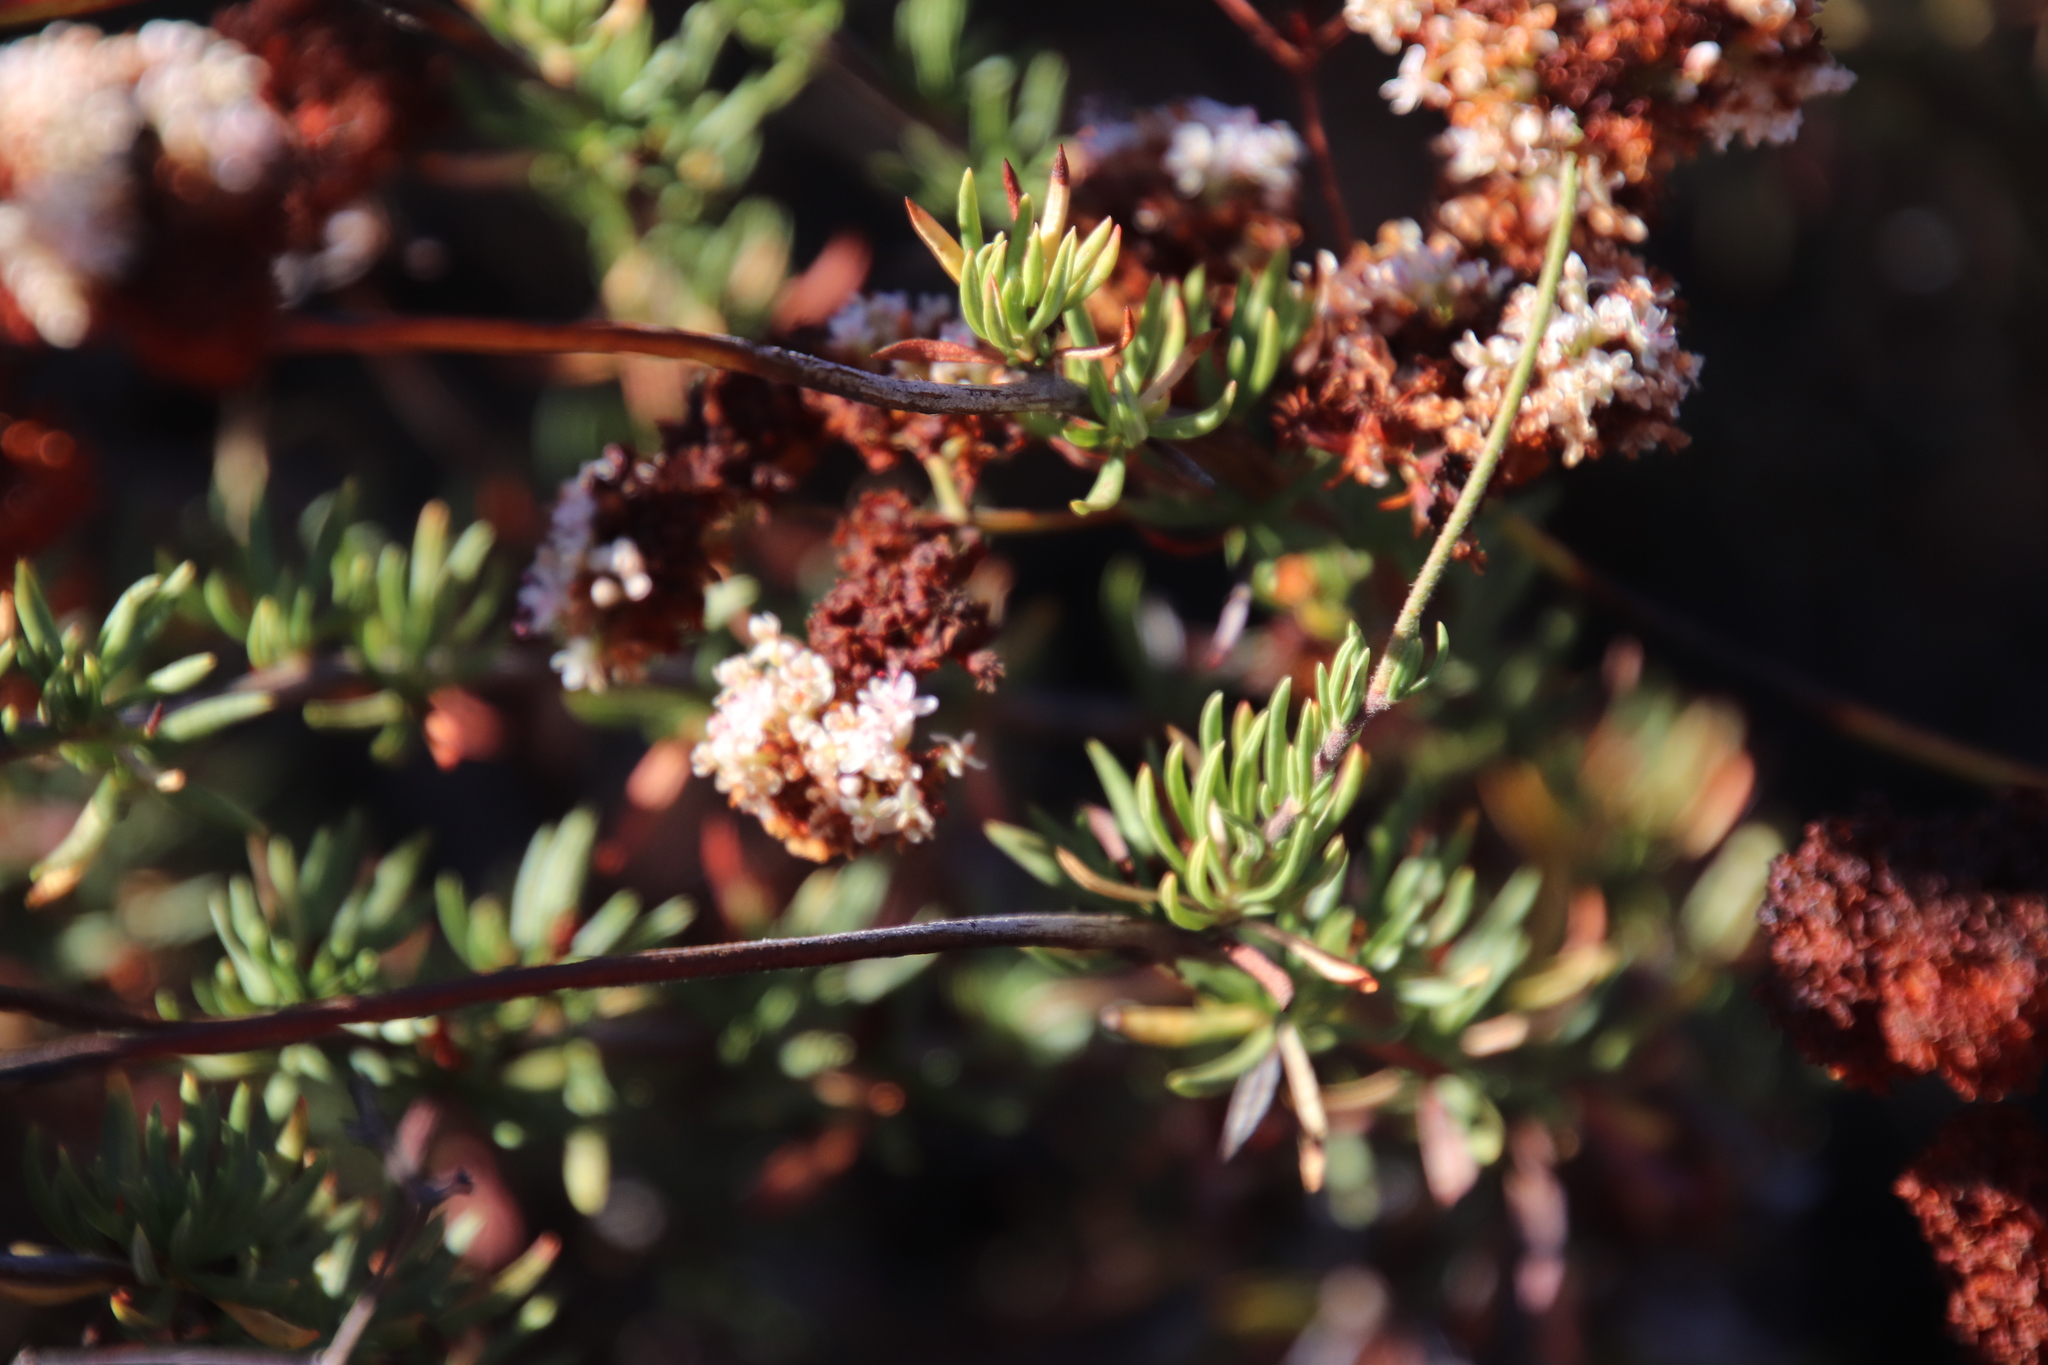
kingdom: Plantae
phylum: Tracheophyta
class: Magnoliopsida
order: Caryophyllales
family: Polygonaceae
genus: Eriogonum
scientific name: Eriogonum fasciculatum
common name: California wild buckwheat
